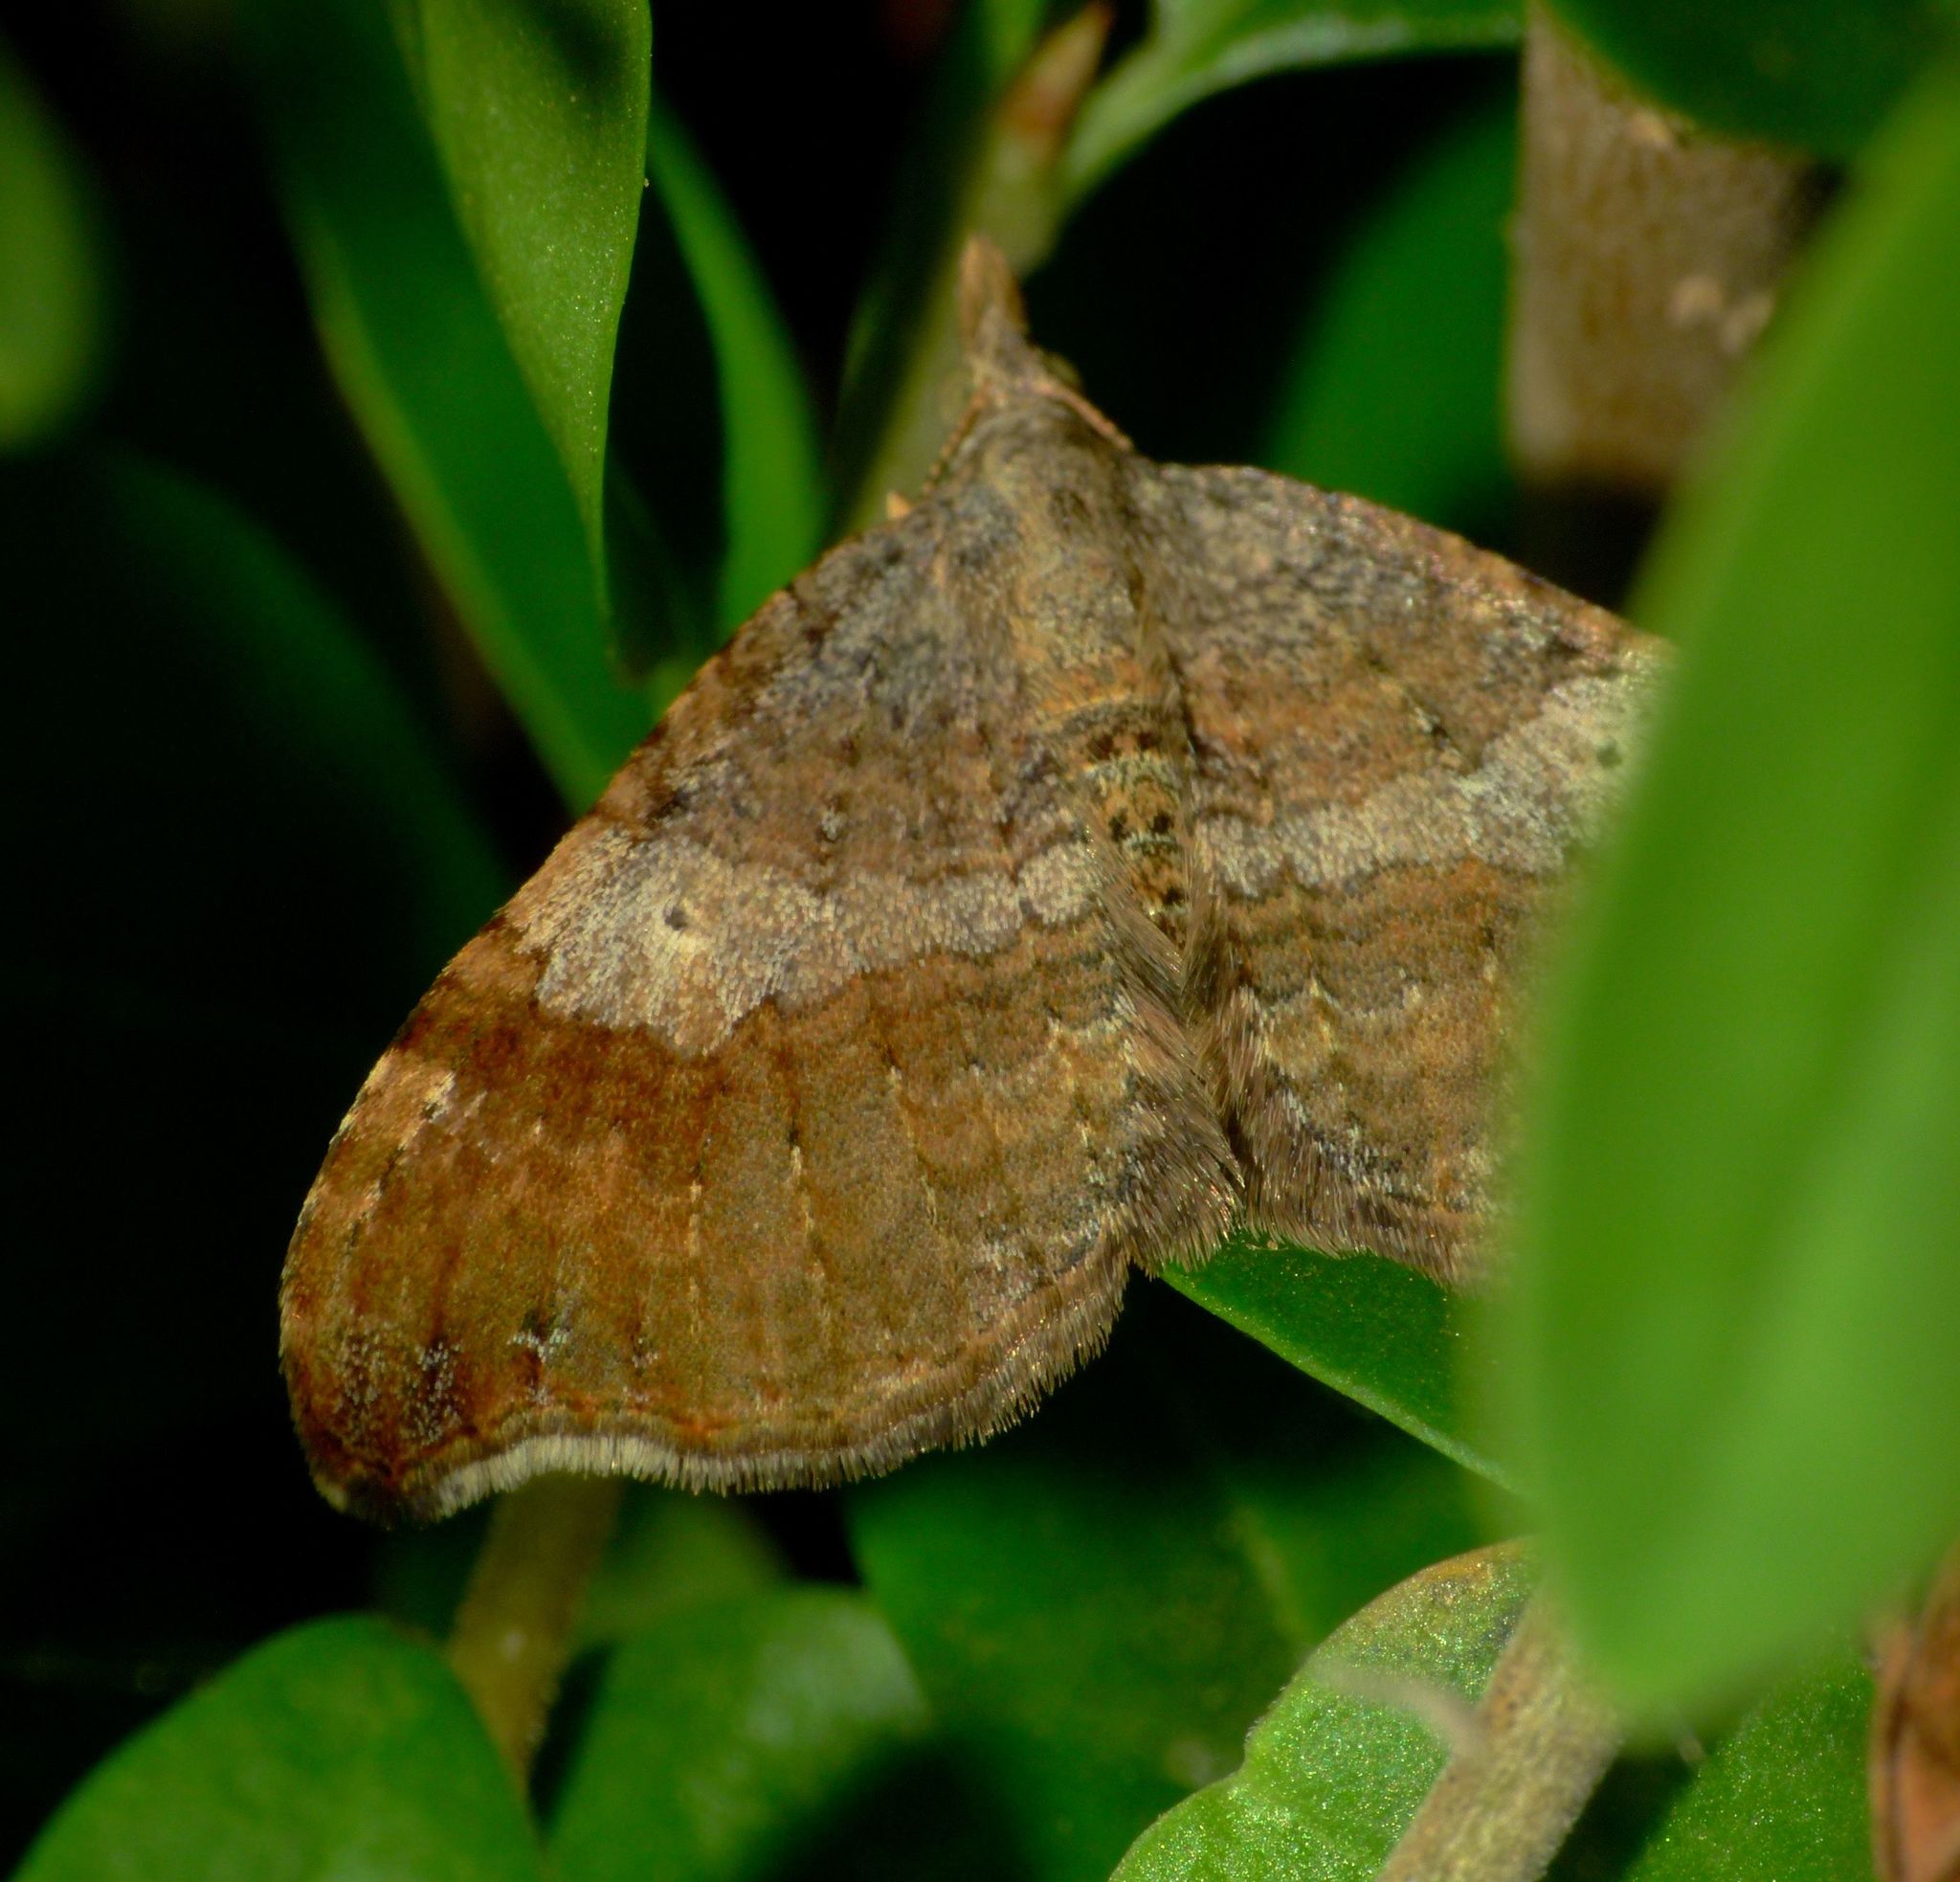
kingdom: Animalia
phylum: Arthropoda
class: Insecta
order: Lepidoptera
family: Geometridae
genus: Homodotis
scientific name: Homodotis megaspilata
